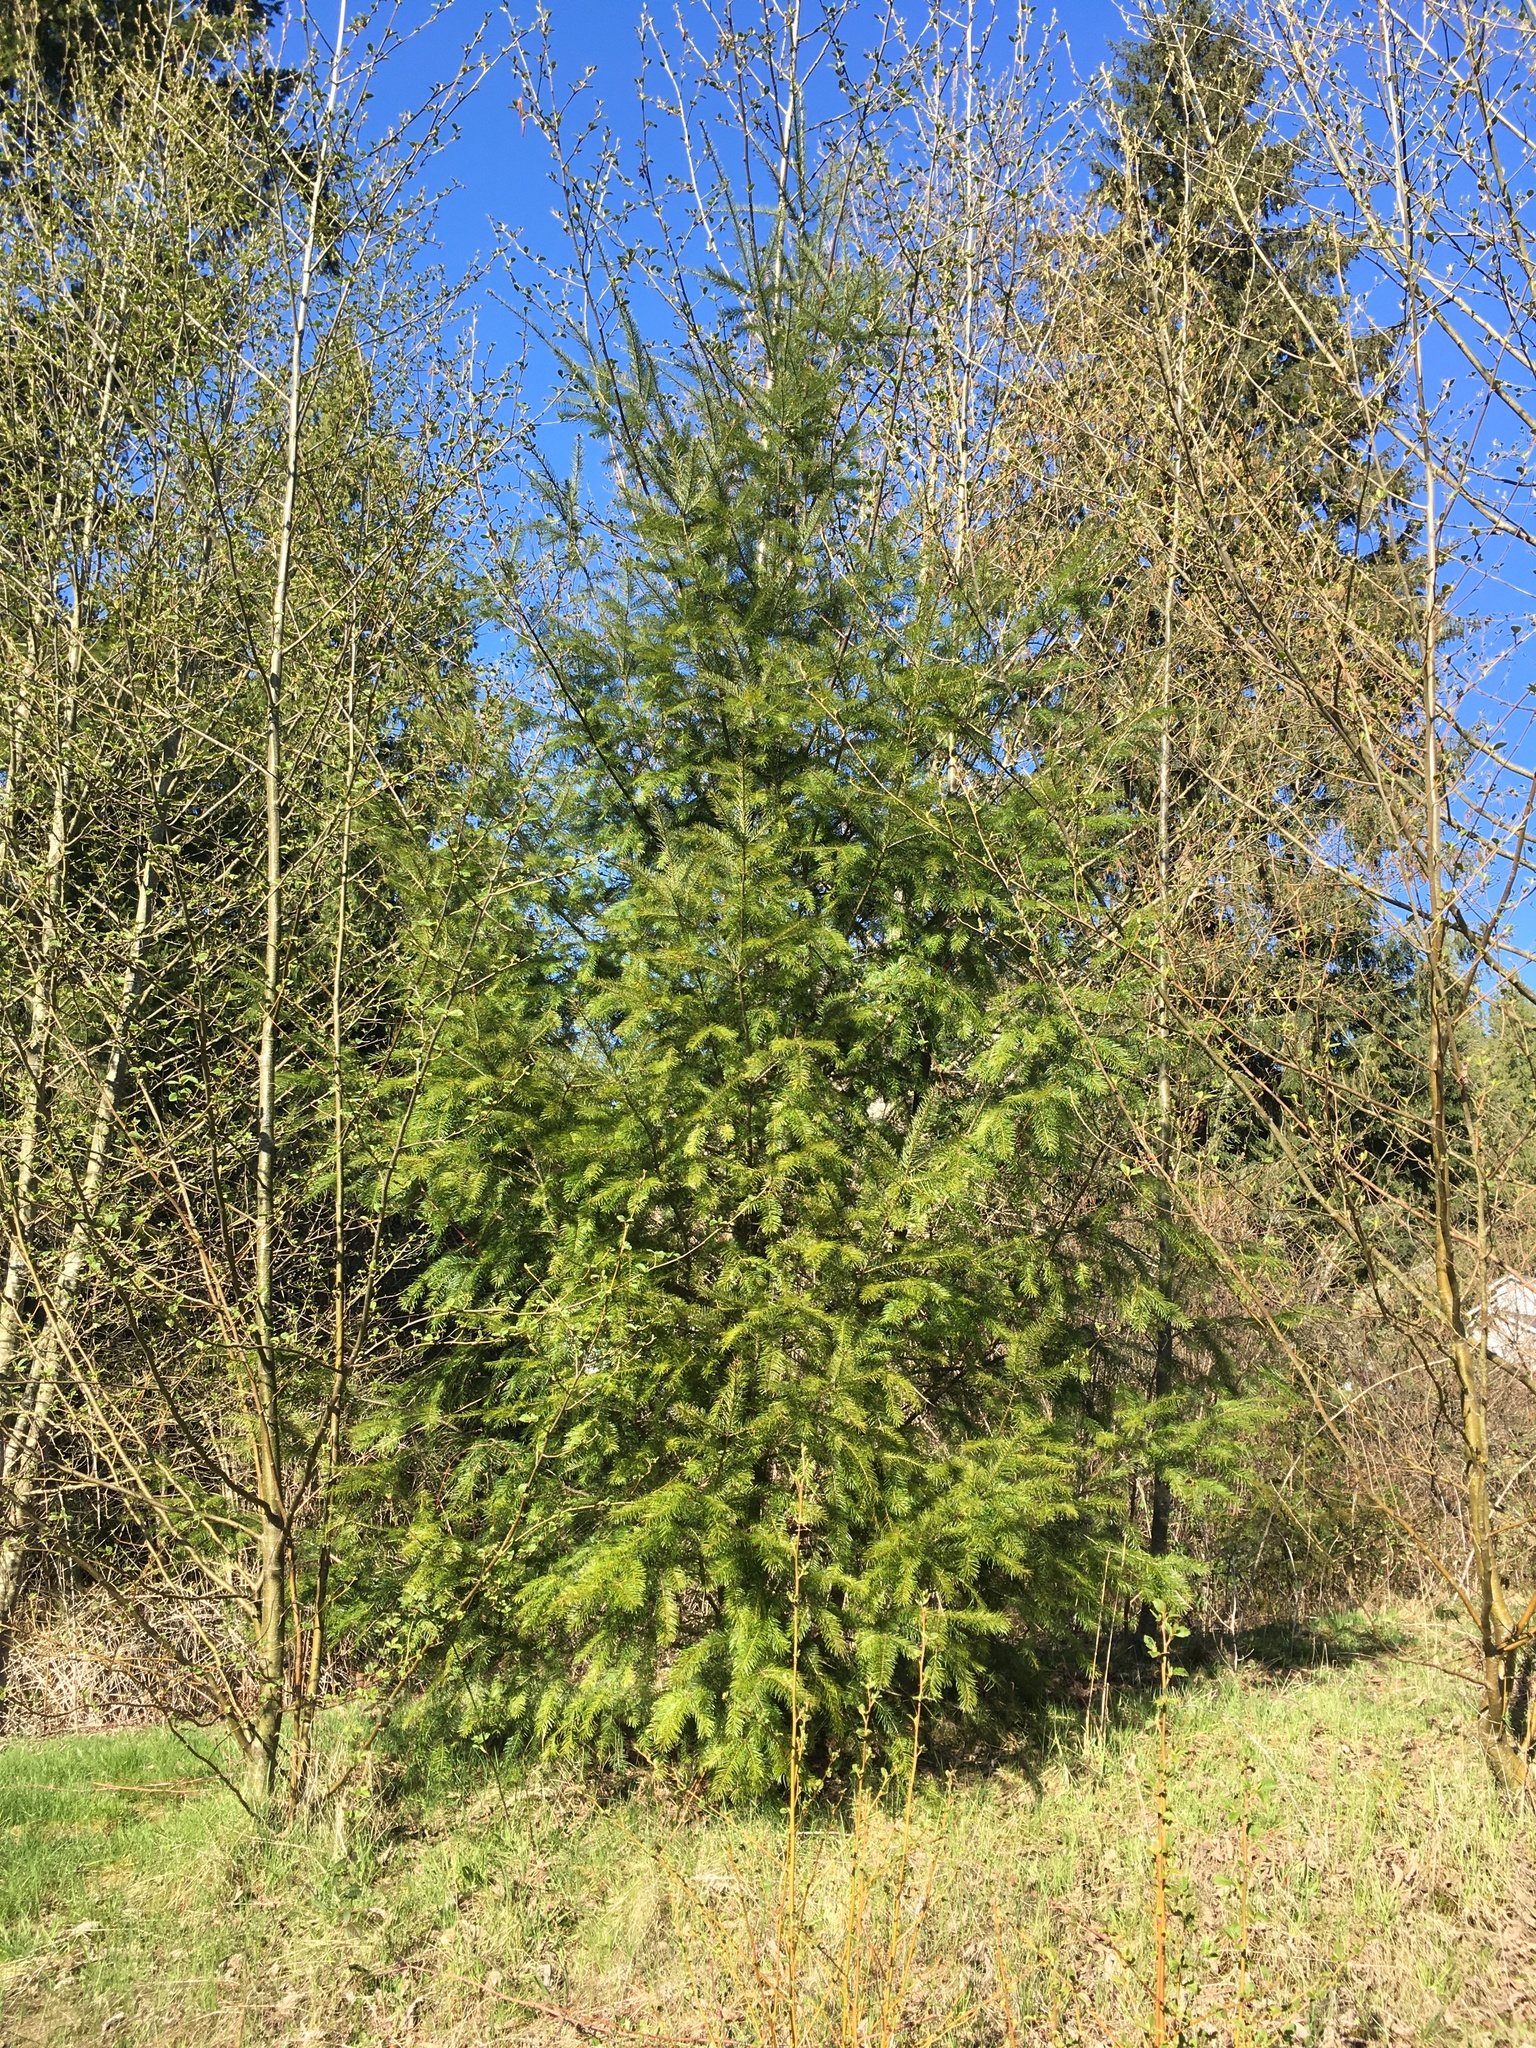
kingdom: Plantae
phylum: Tracheophyta
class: Pinopsida
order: Pinales
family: Pinaceae
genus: Pseudotsuga
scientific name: Pseudotsuga menziesii
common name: Douglas fir
